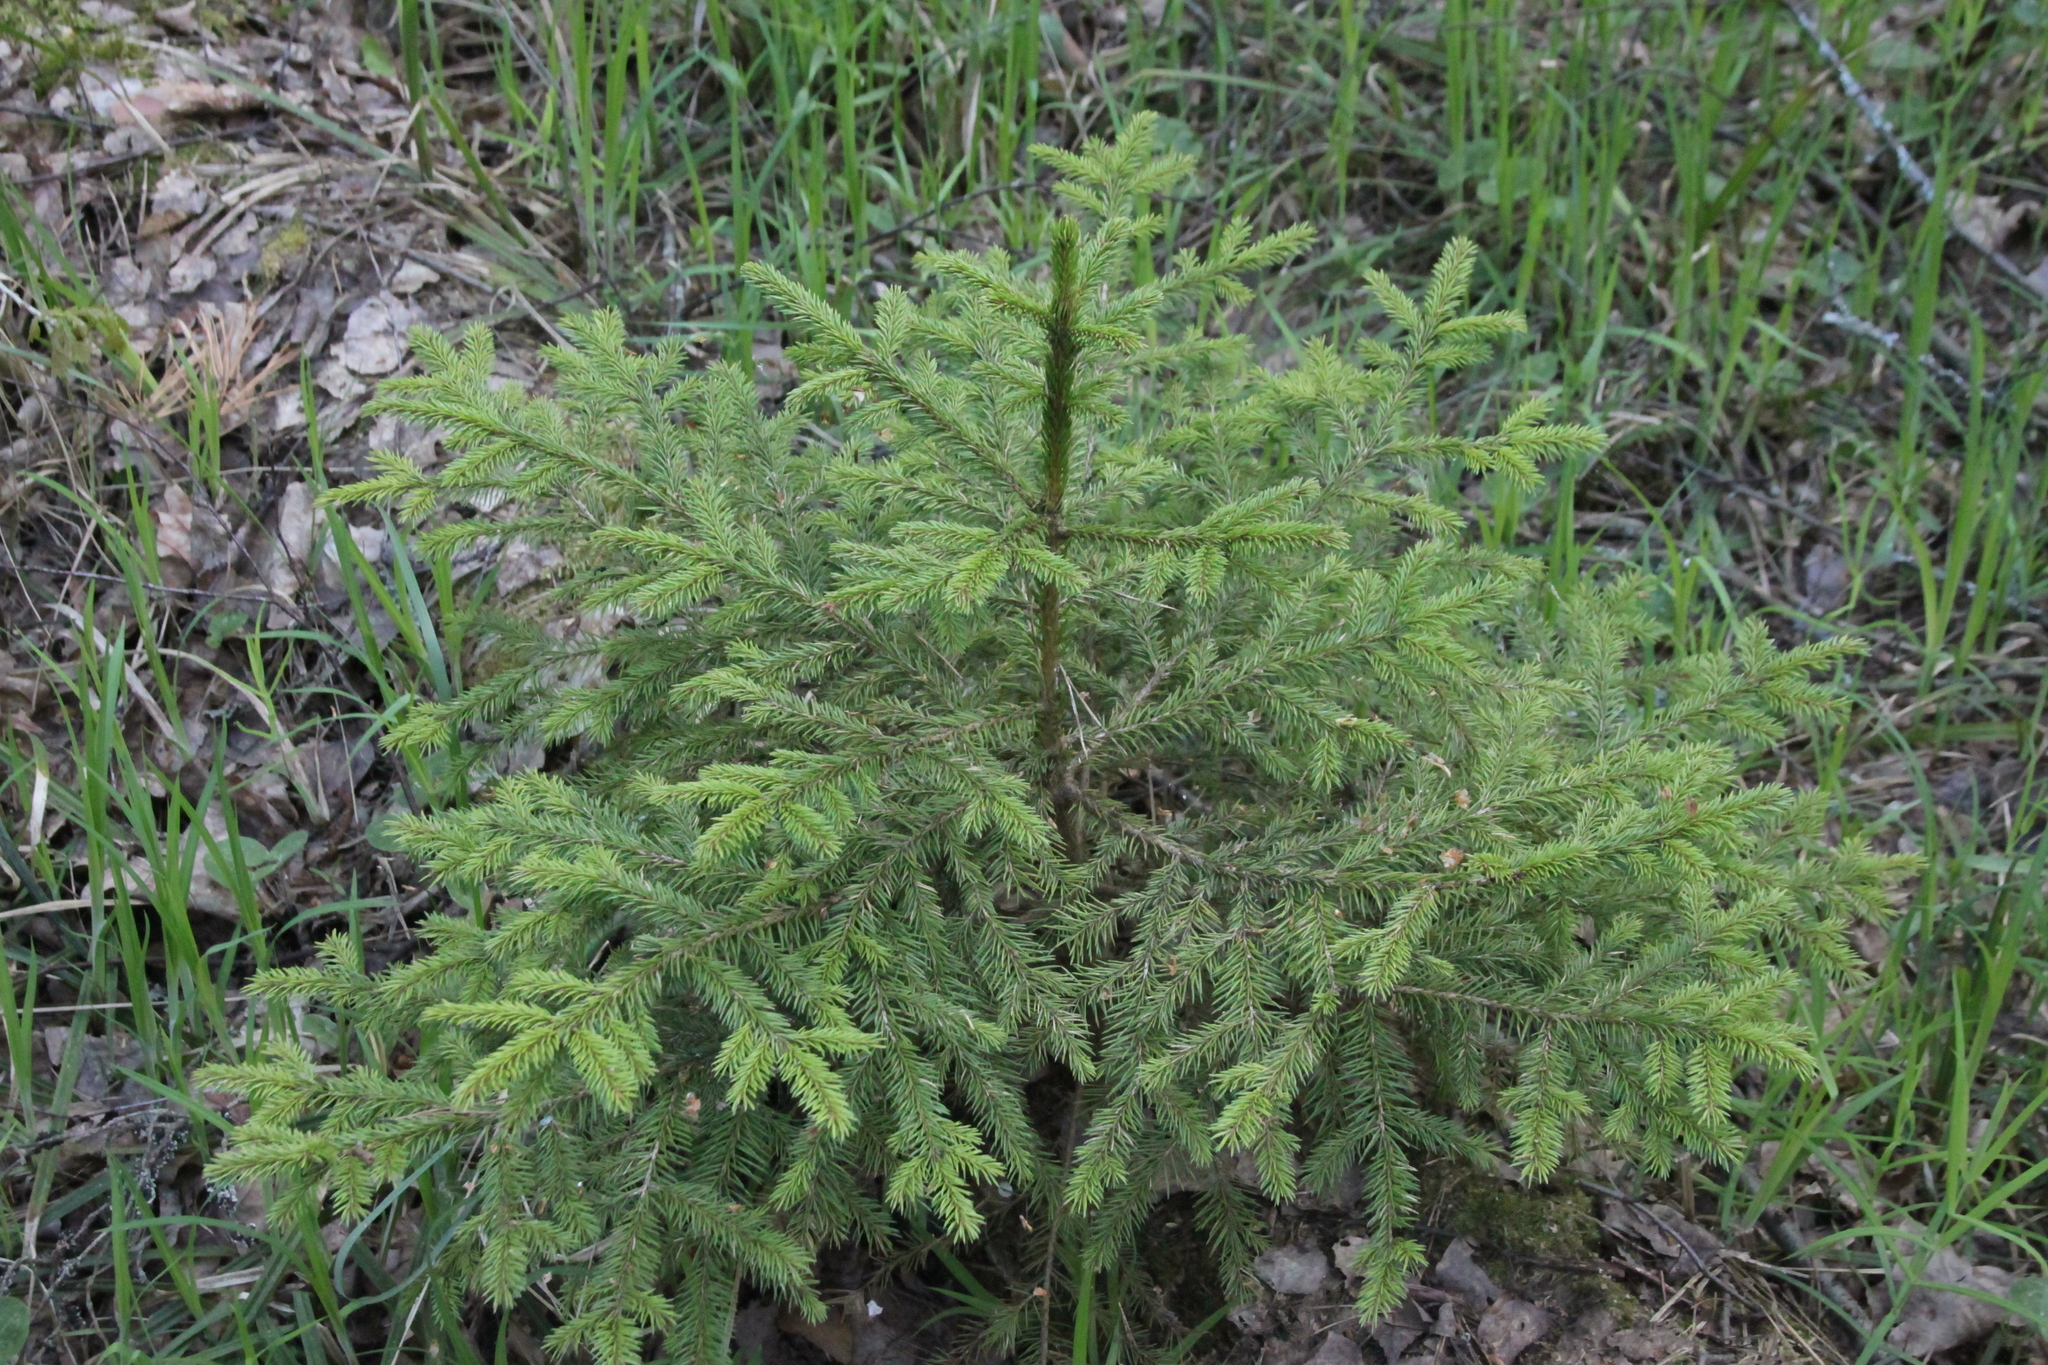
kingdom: Plantae
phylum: Tracheophyta
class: Pinopsida
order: Pinales
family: Pinaceae
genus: Picea
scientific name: Picea abies
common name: Norway spruce
